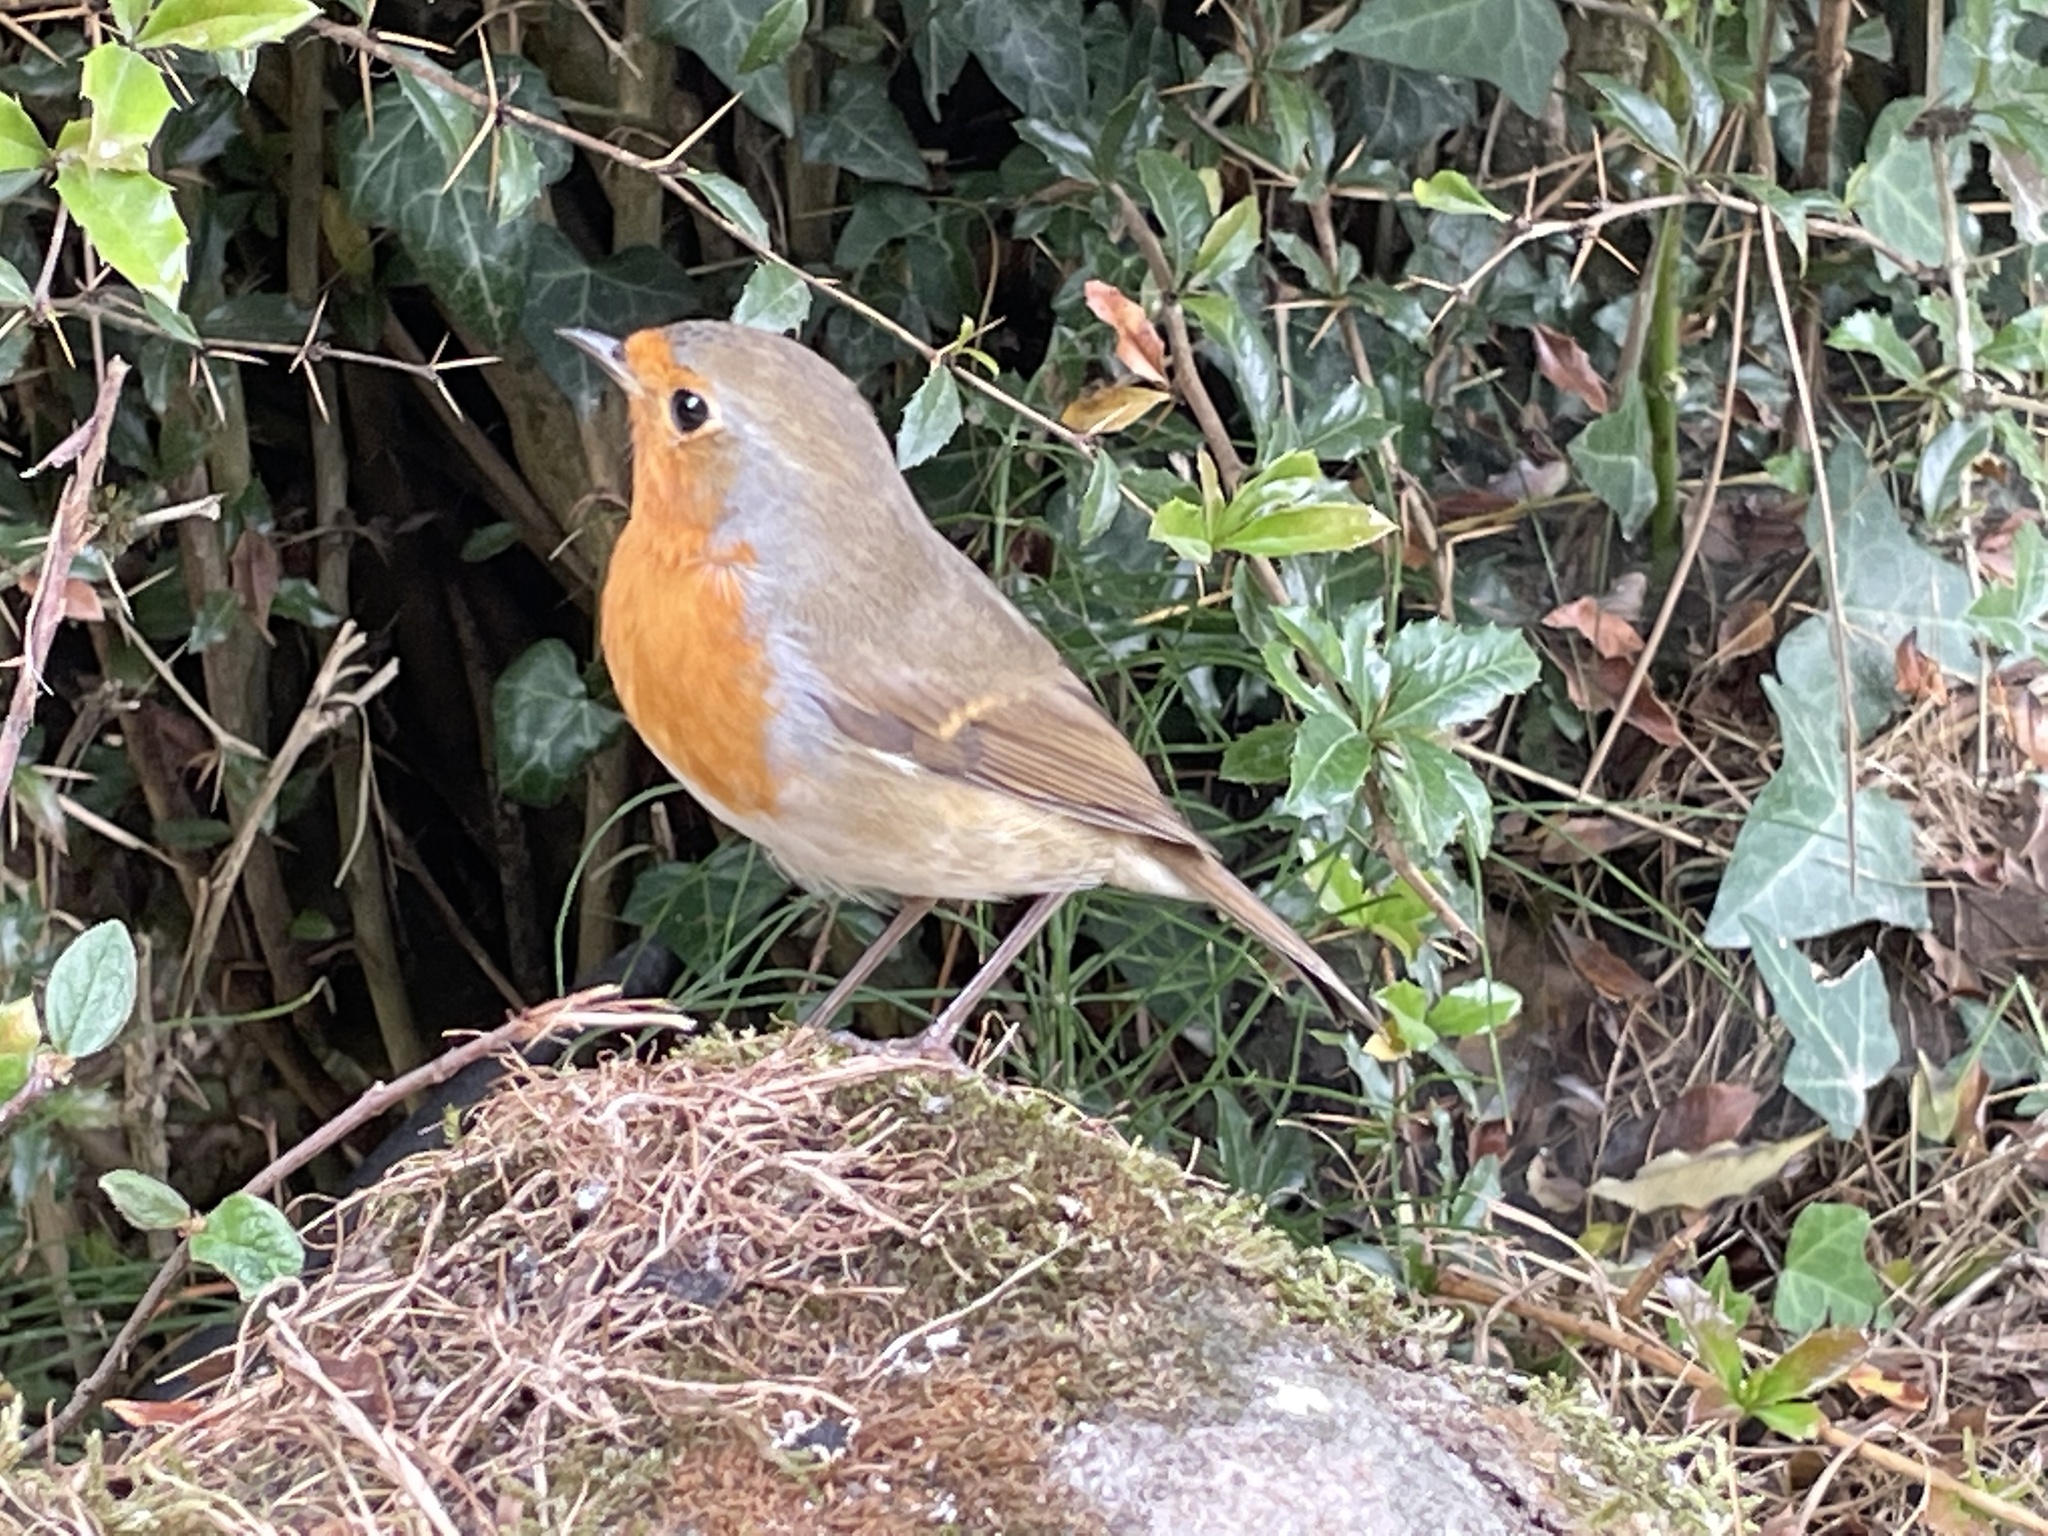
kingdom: Animalia
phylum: Chordata
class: Aves
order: Passeriformes
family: Muscicapidae
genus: Erithacus
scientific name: Erithacus rubecula
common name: European robin
